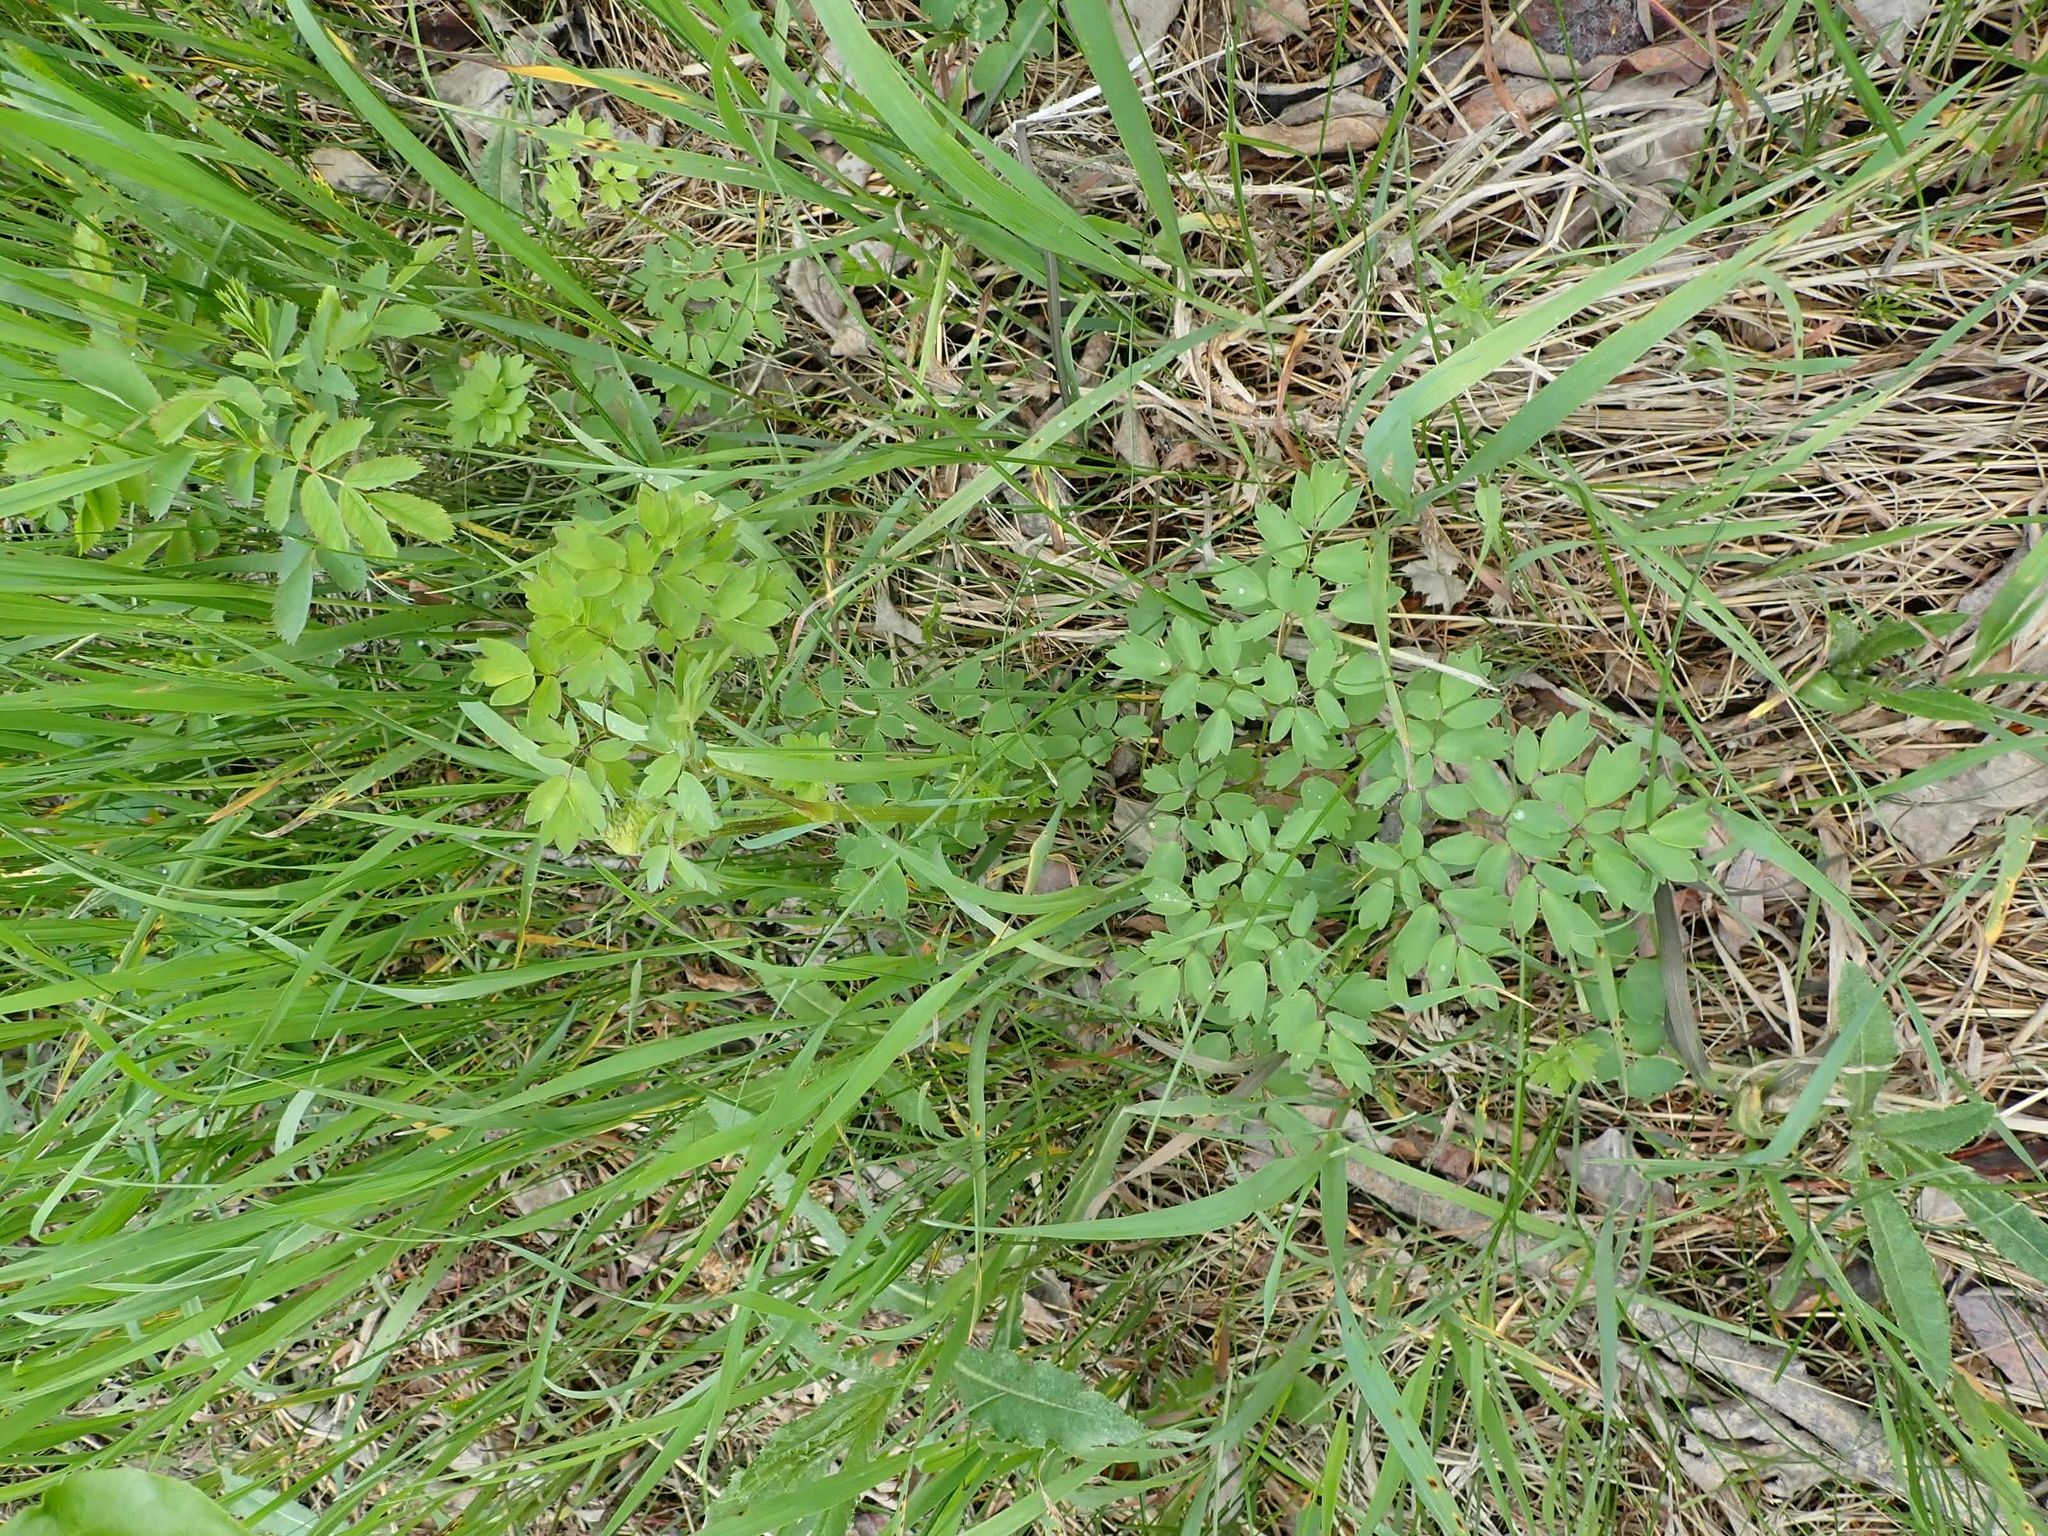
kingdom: Plantae
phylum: Tracheophyta
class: Magnoliopsida
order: Ranunculales
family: Ranunculaceae
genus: Thalictrum
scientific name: Thalictrum dasycarpum
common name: Purple meadow-rue
